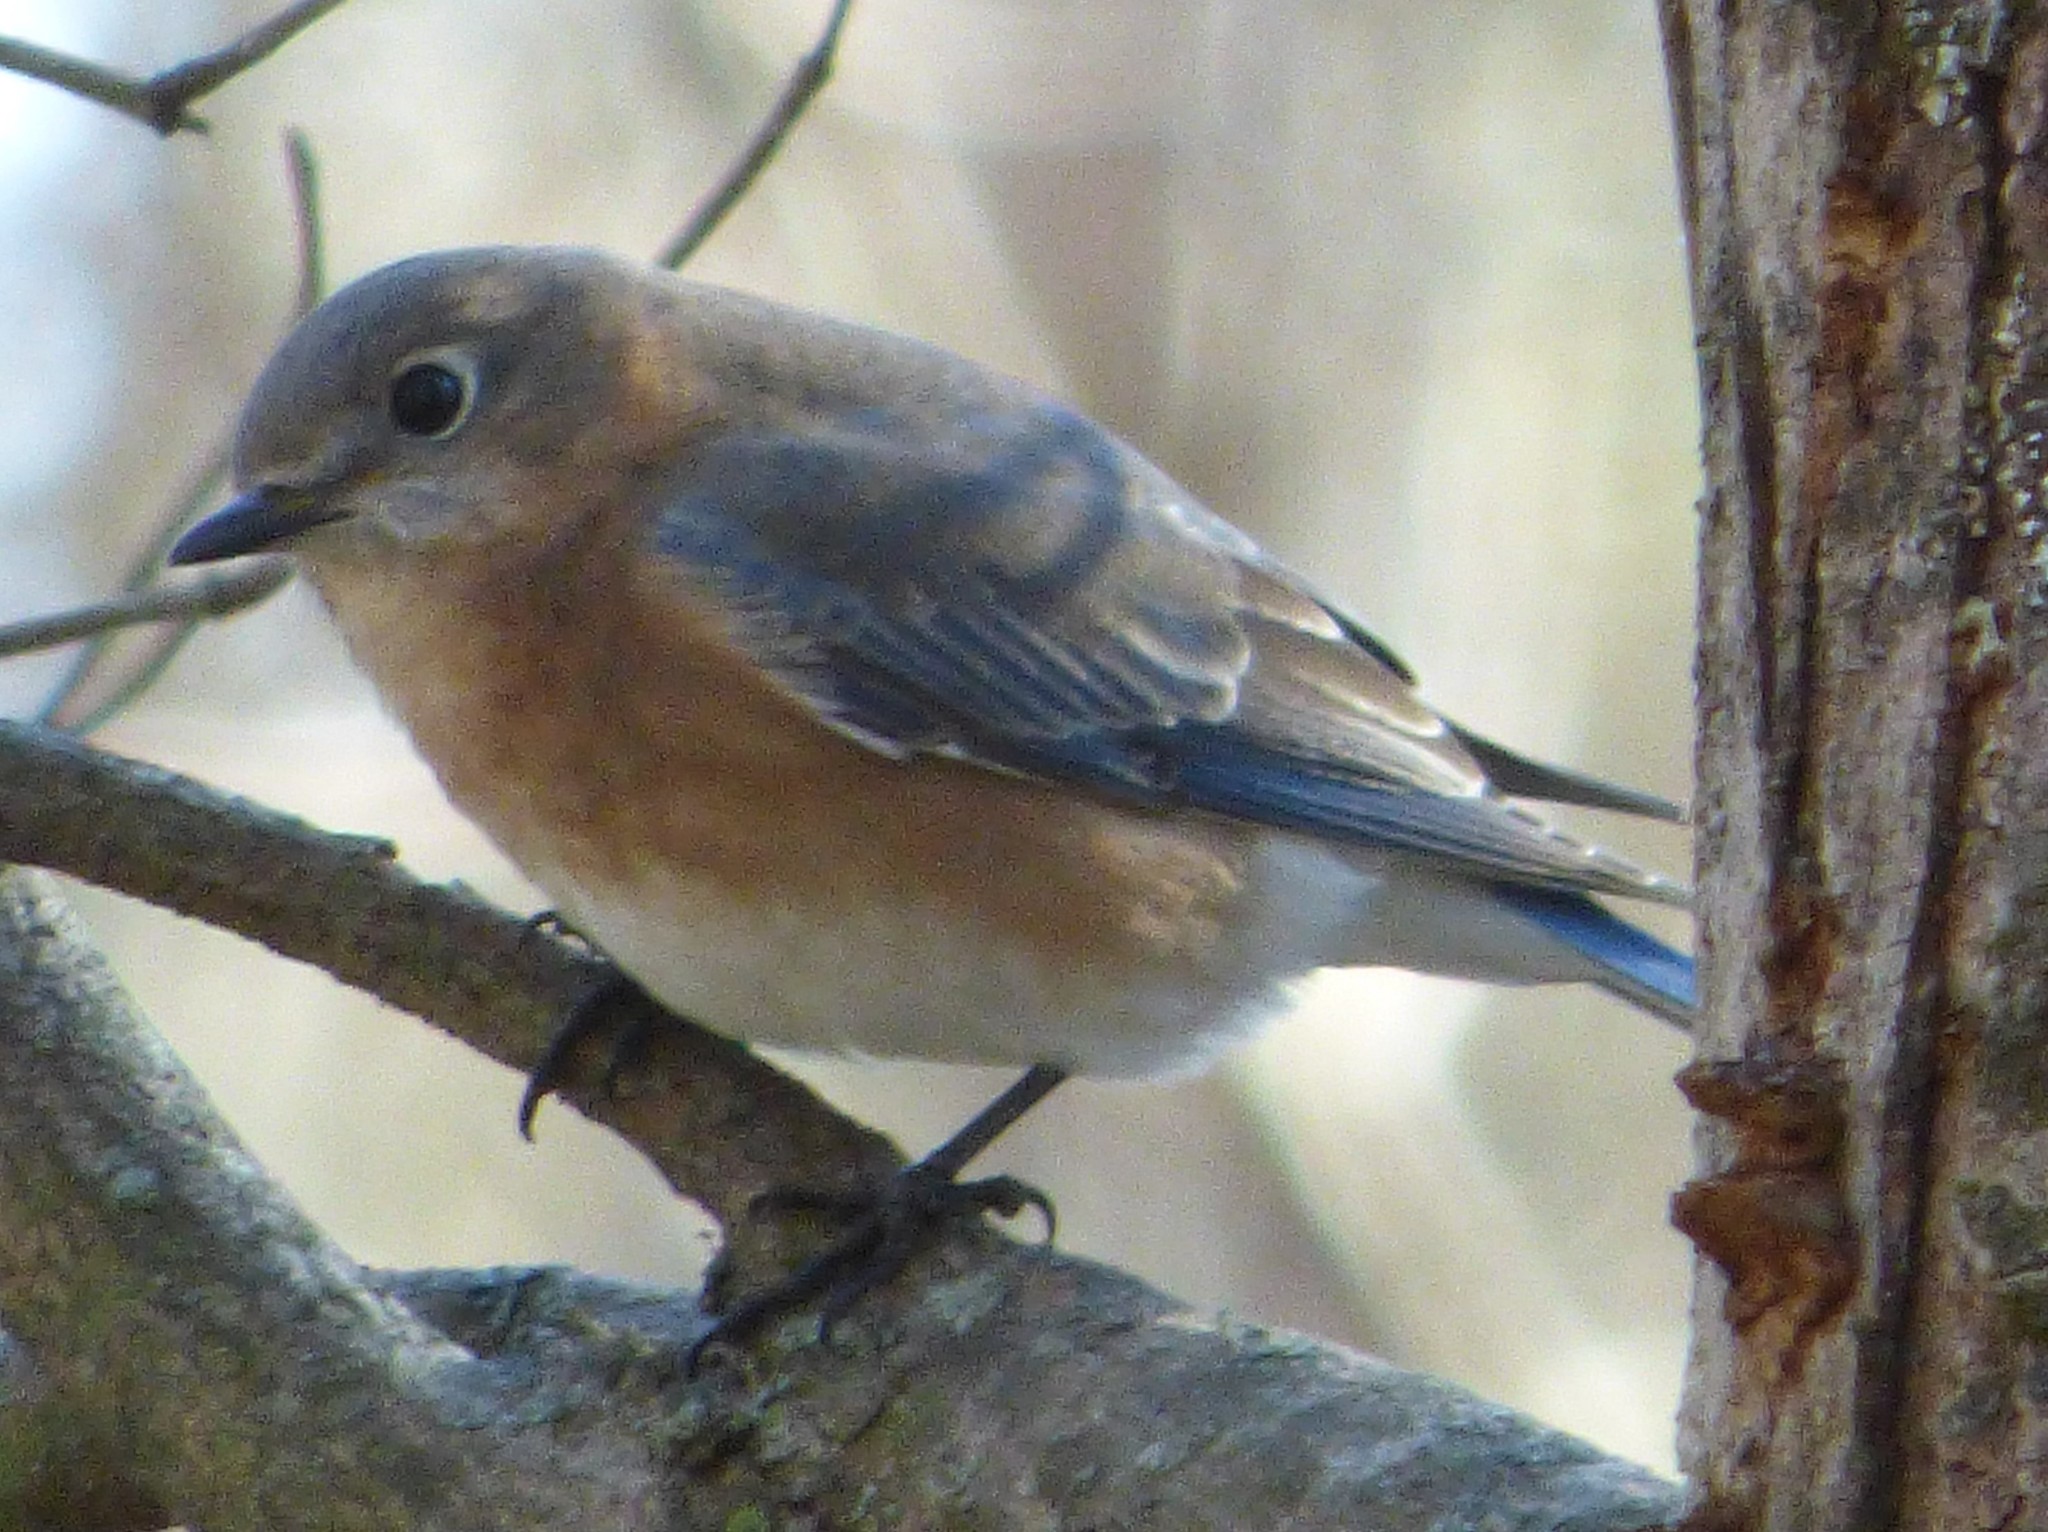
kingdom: Animalia
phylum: Chordata
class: Aves
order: Passeriformes
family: Turdidae
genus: Sialia
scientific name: Sialia sialis
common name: Eastern bluebird
